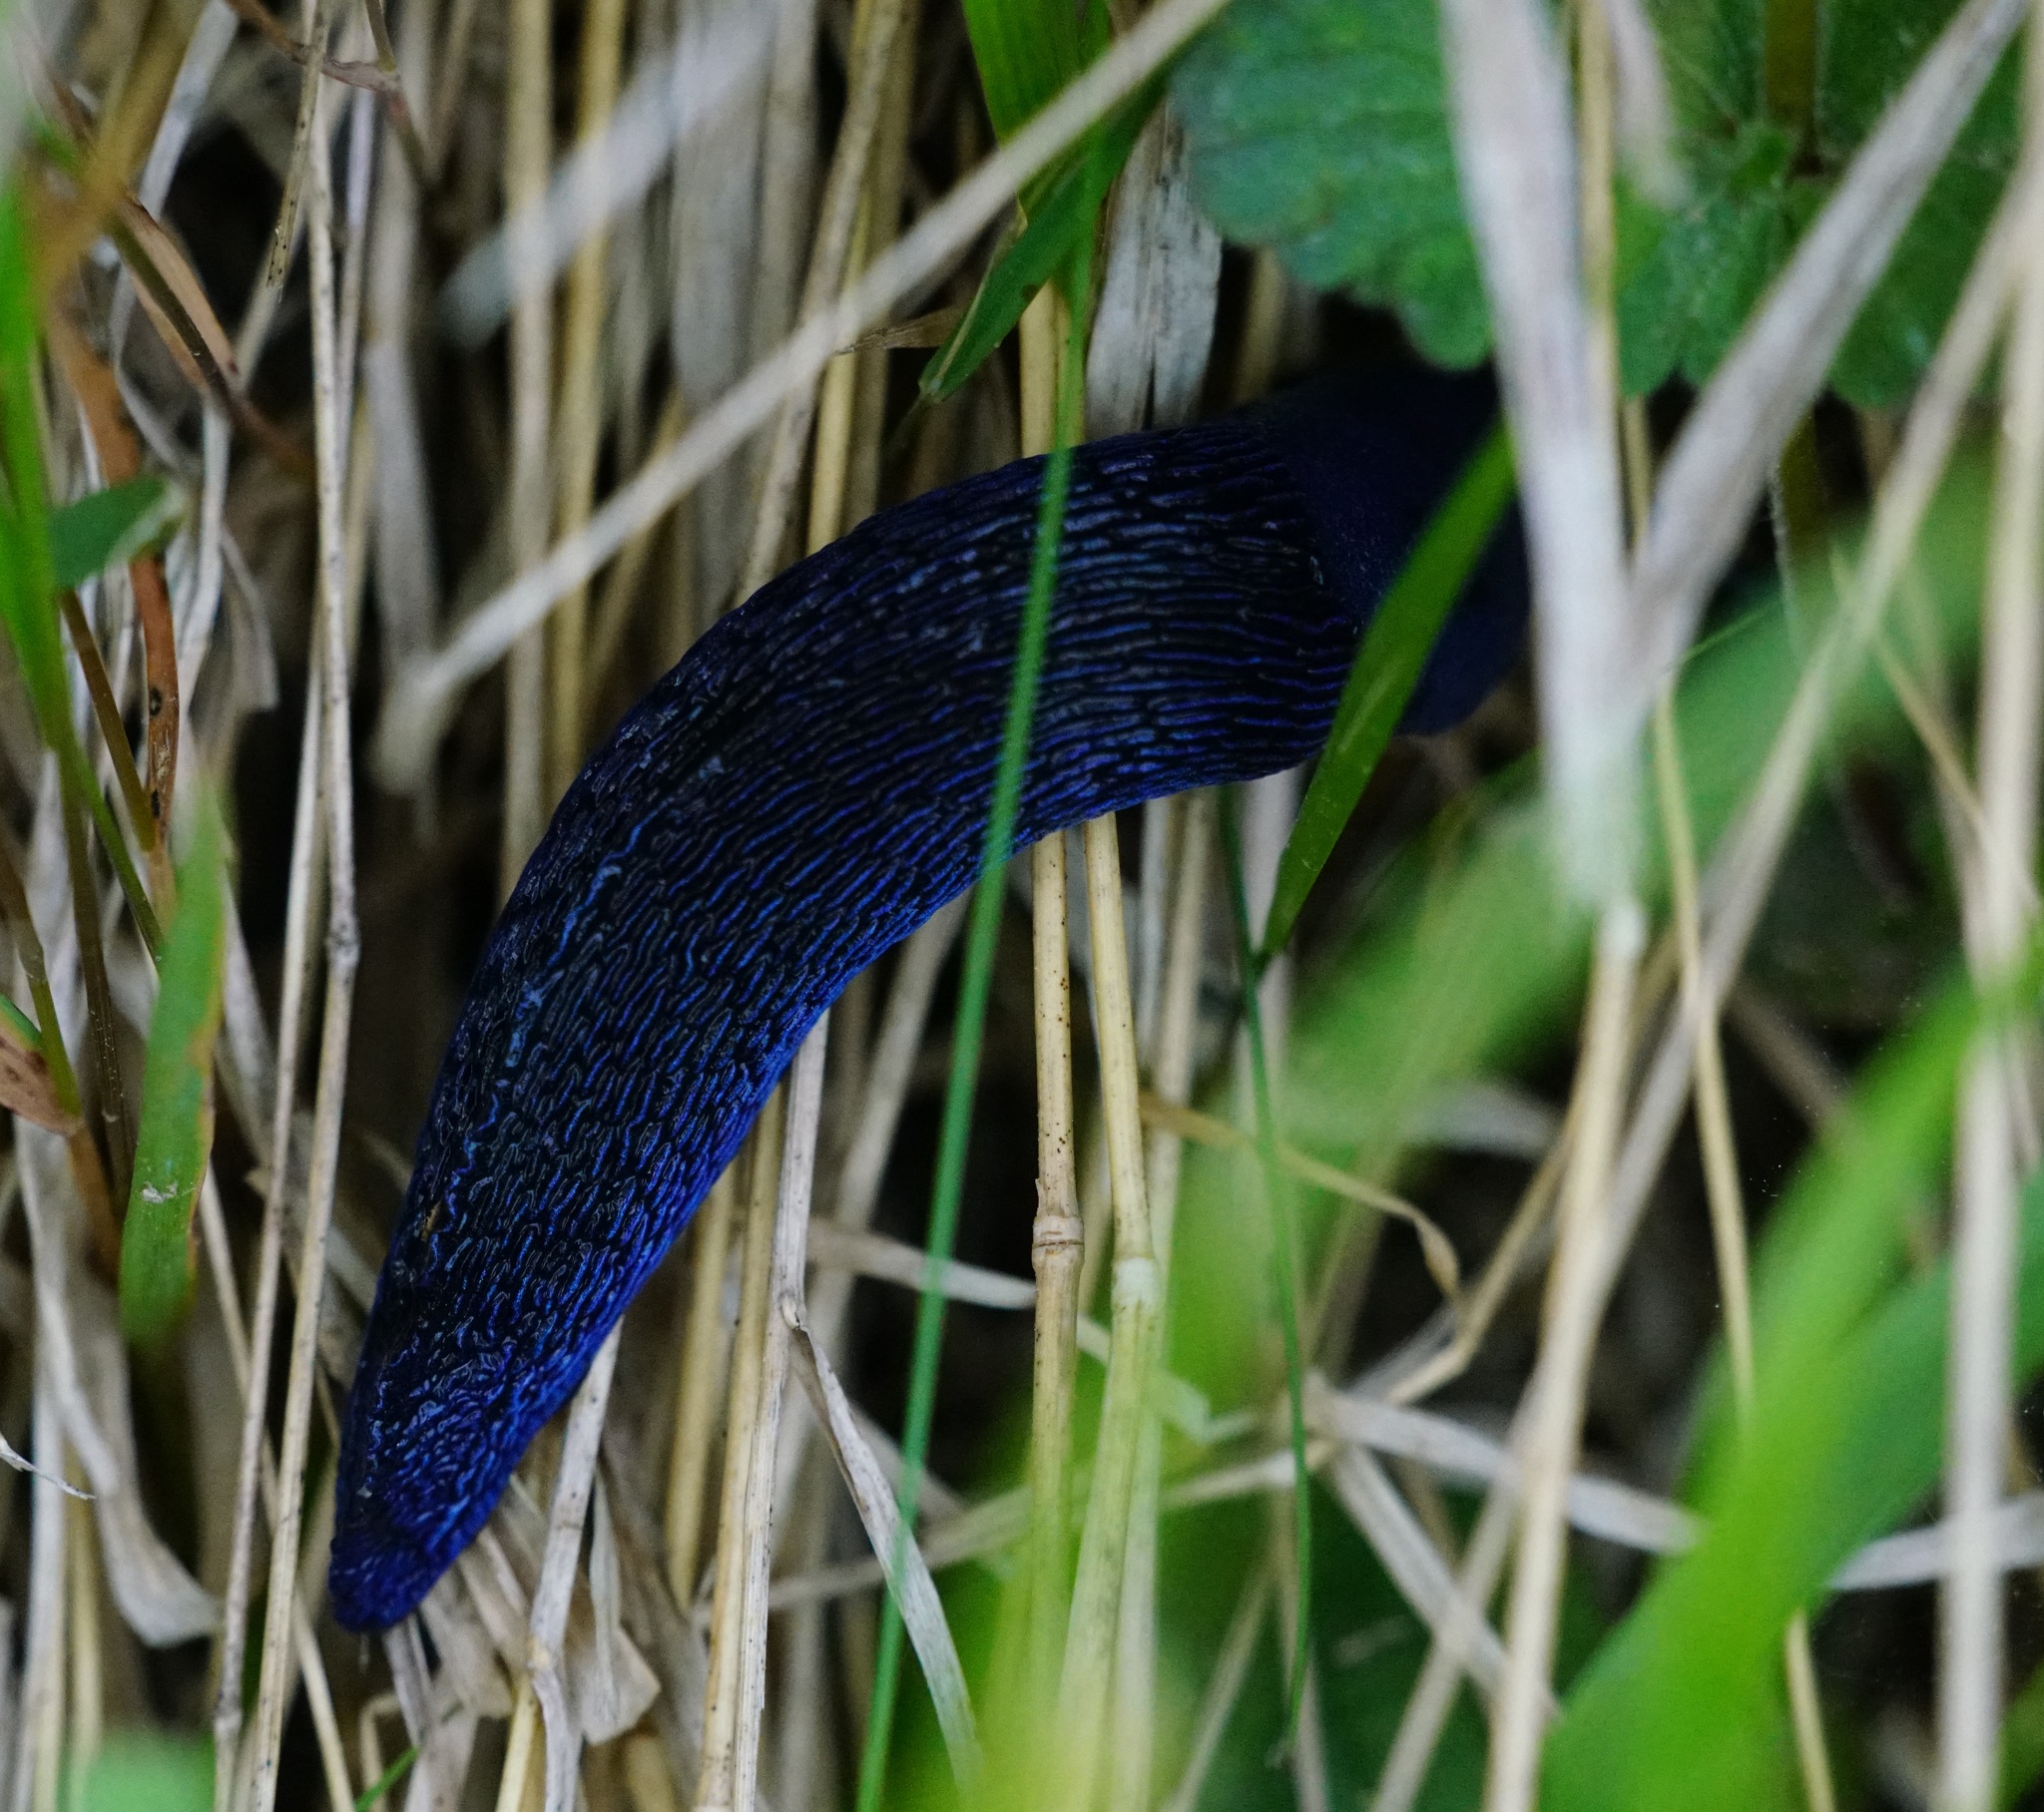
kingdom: Animalia
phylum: Mollusca
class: Gastropoda
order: Stylommatophora
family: Limacidae
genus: Bielzia
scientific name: Bielzia coerulans
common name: Carpathian blue slug
